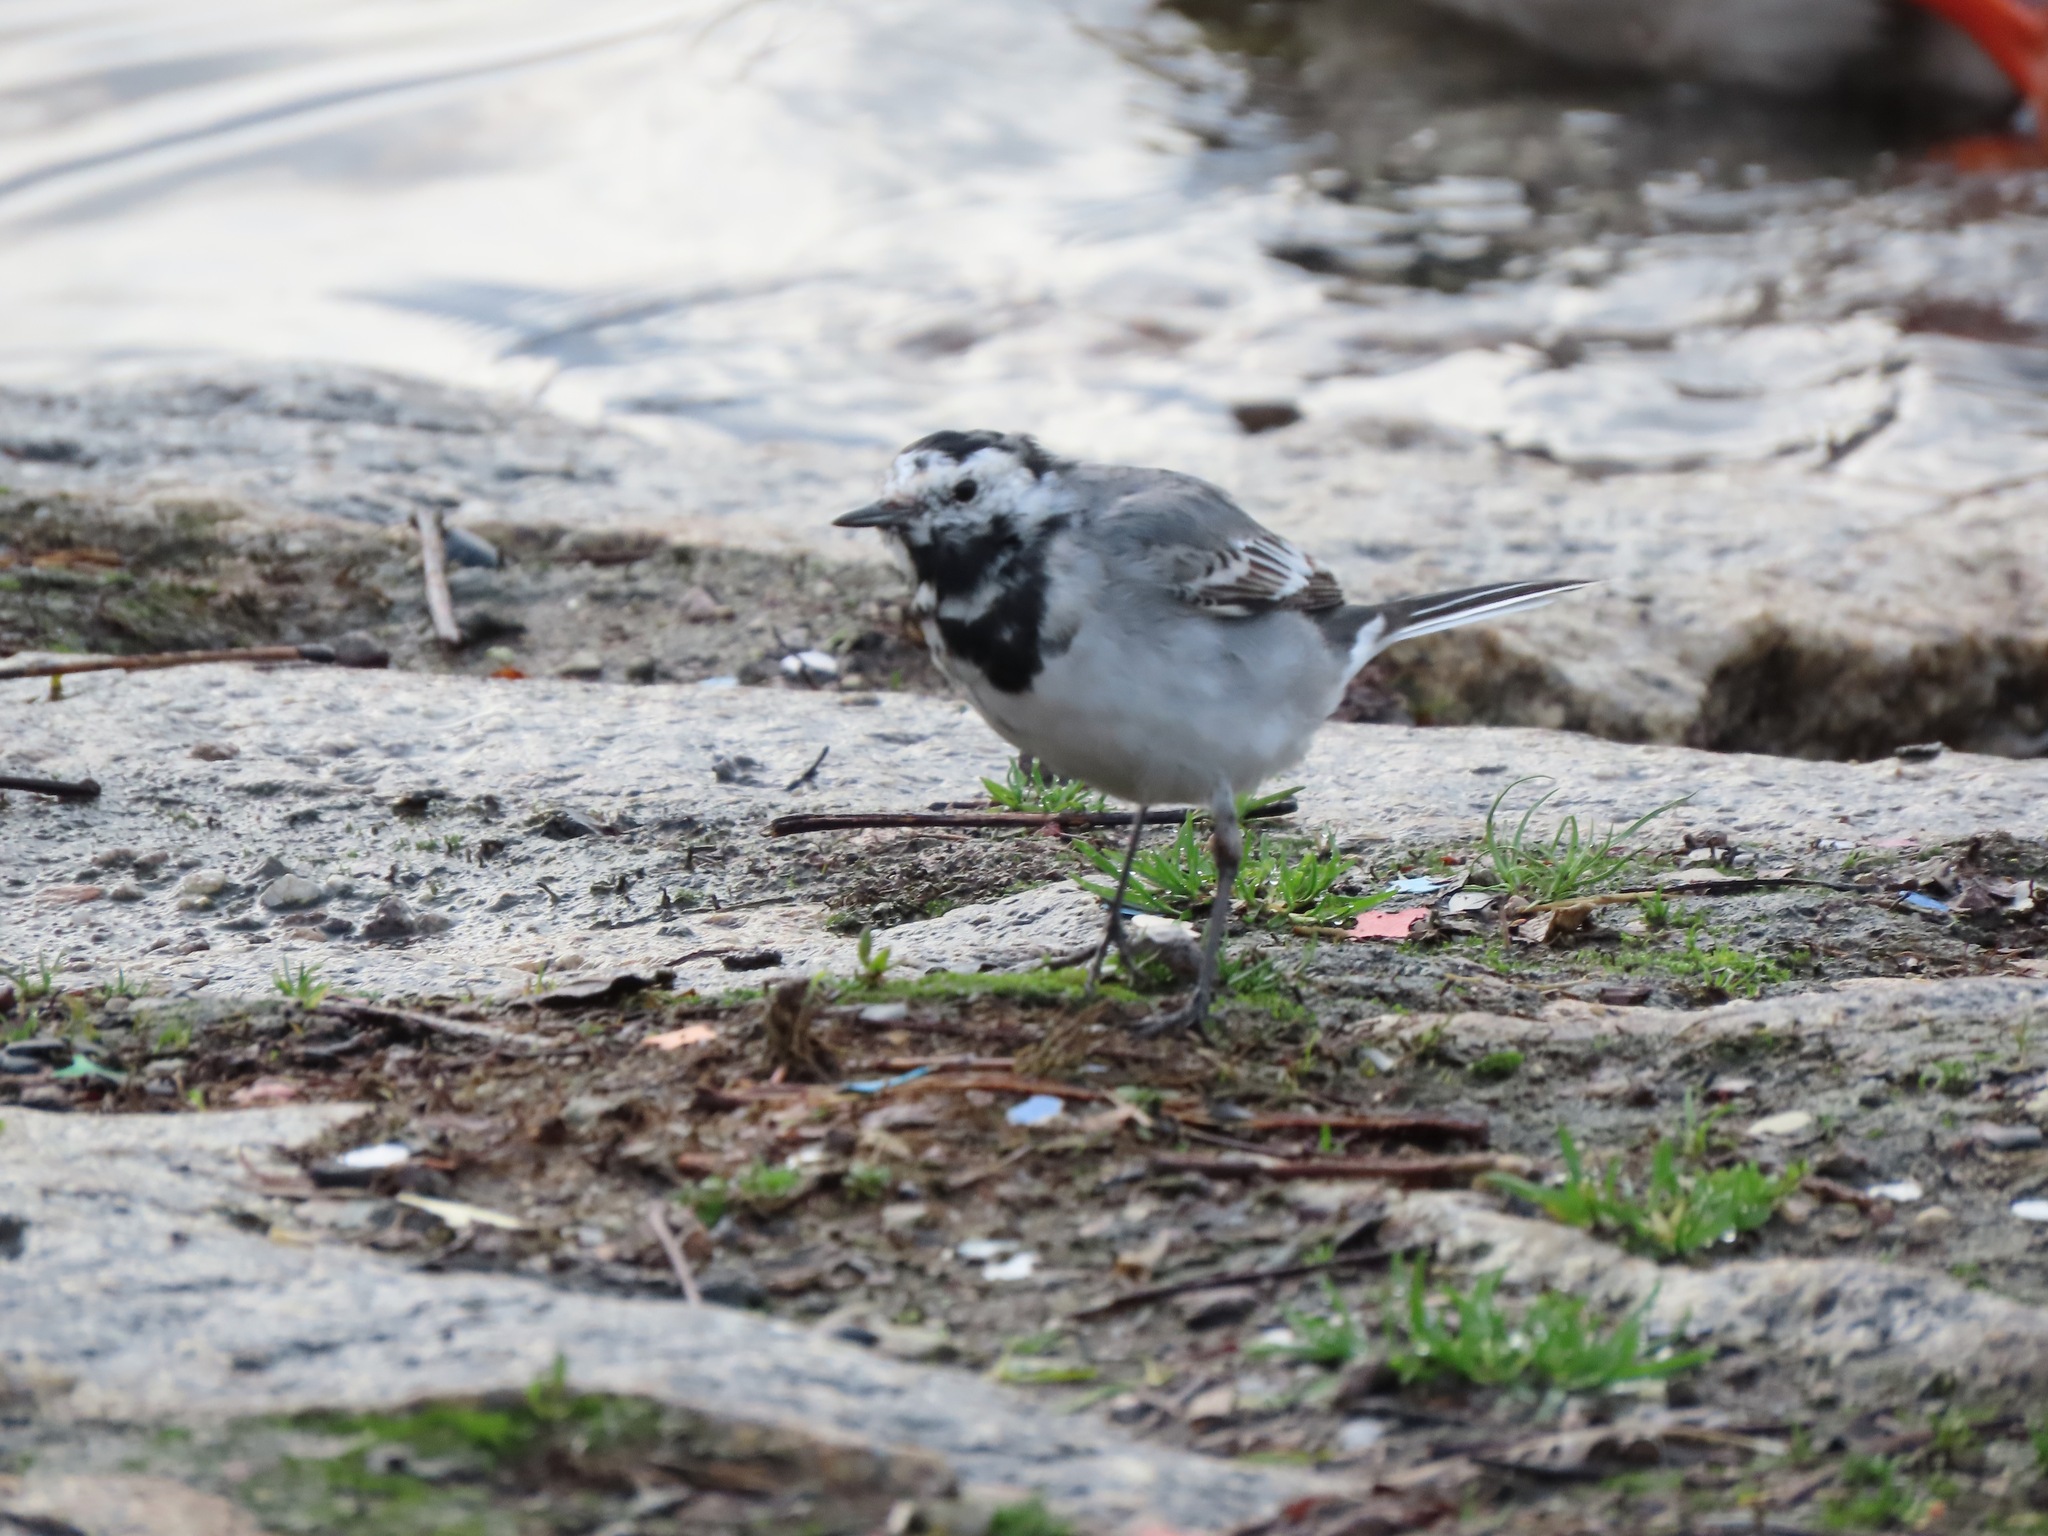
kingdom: Animalia
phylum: Chordata
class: Aves
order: Passeriformes
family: Motacillidae
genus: Motacilla
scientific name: Motacilla alba
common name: White wagtail
